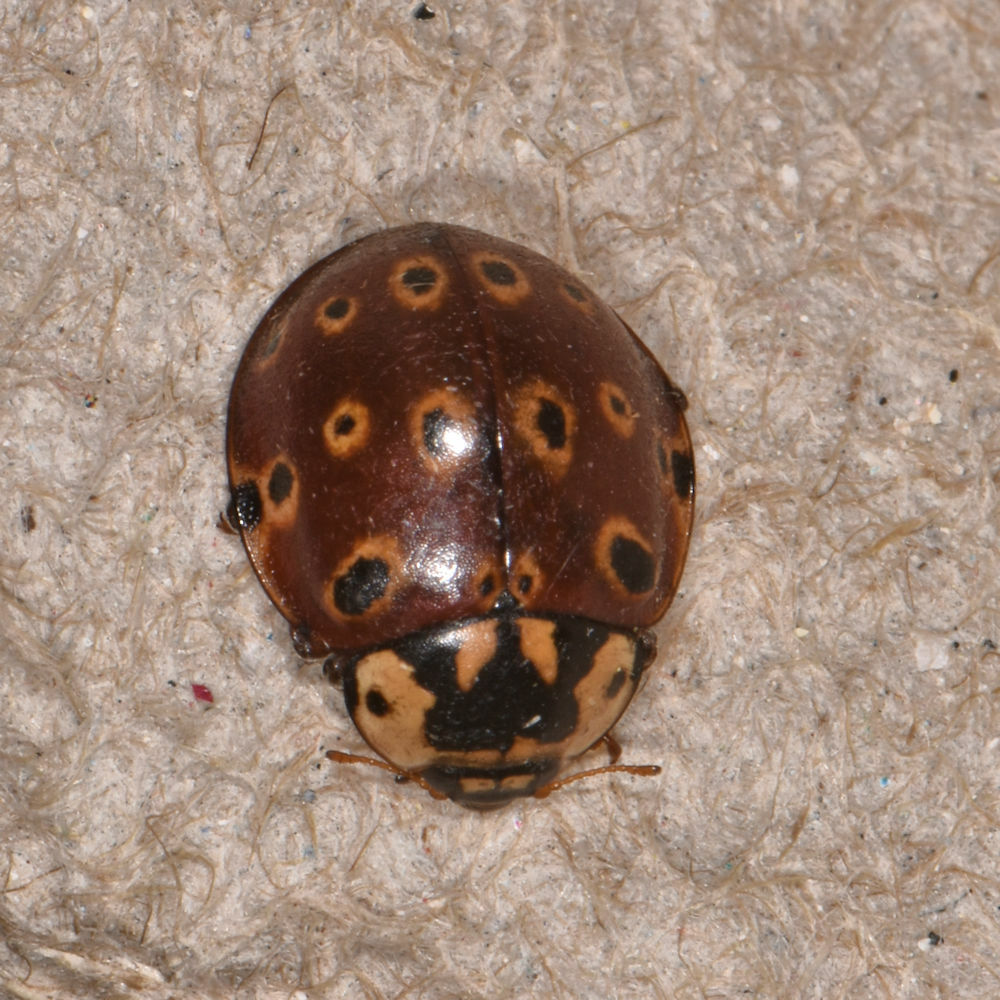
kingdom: Animalia
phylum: Arthropoda
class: Insecta
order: Coleoptera
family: Coccinellidae
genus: Anatis
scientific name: Anatis mali
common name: Eye-spotted lady beetle
